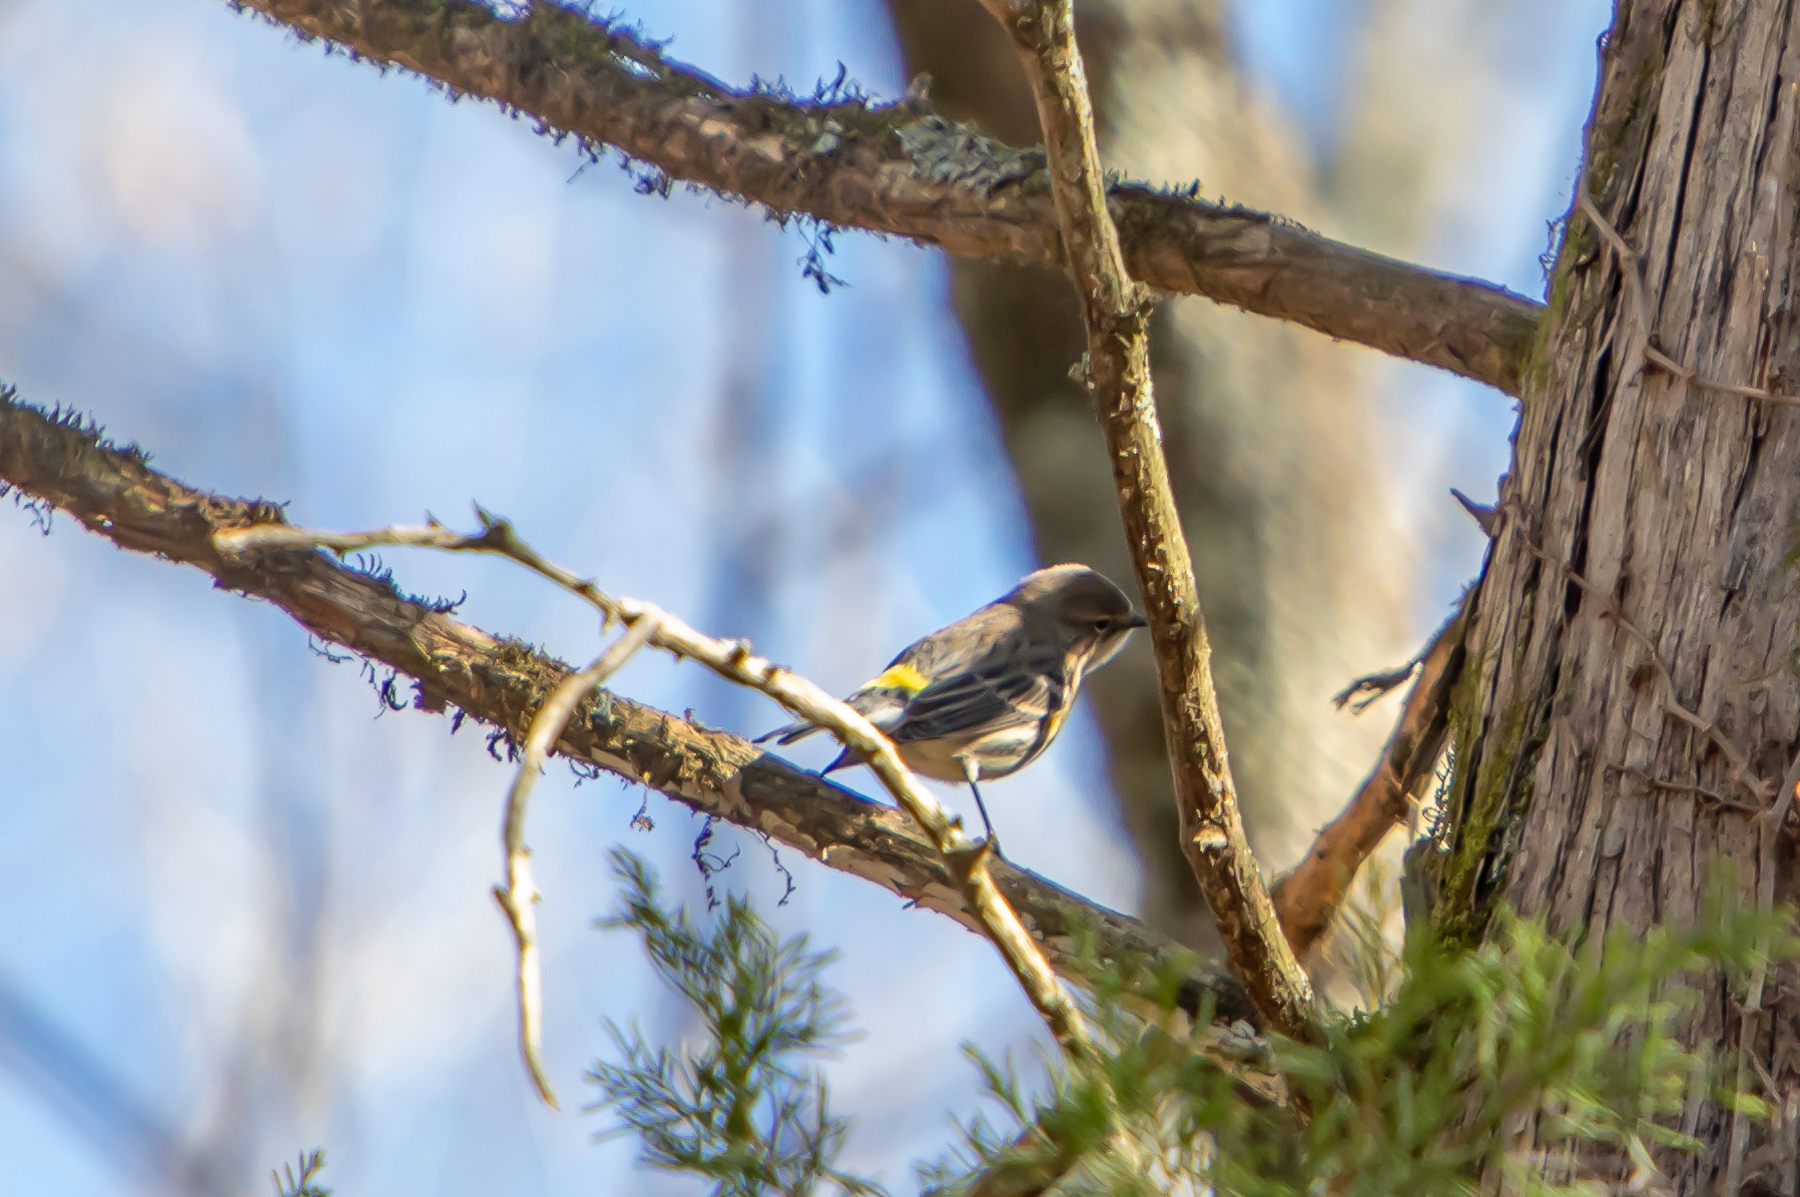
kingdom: Animalia
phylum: Chordata
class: Aves
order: Passeriformes
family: Parulidae
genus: Setophaga
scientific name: Setophaga coronata
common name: Myrtle warbler
